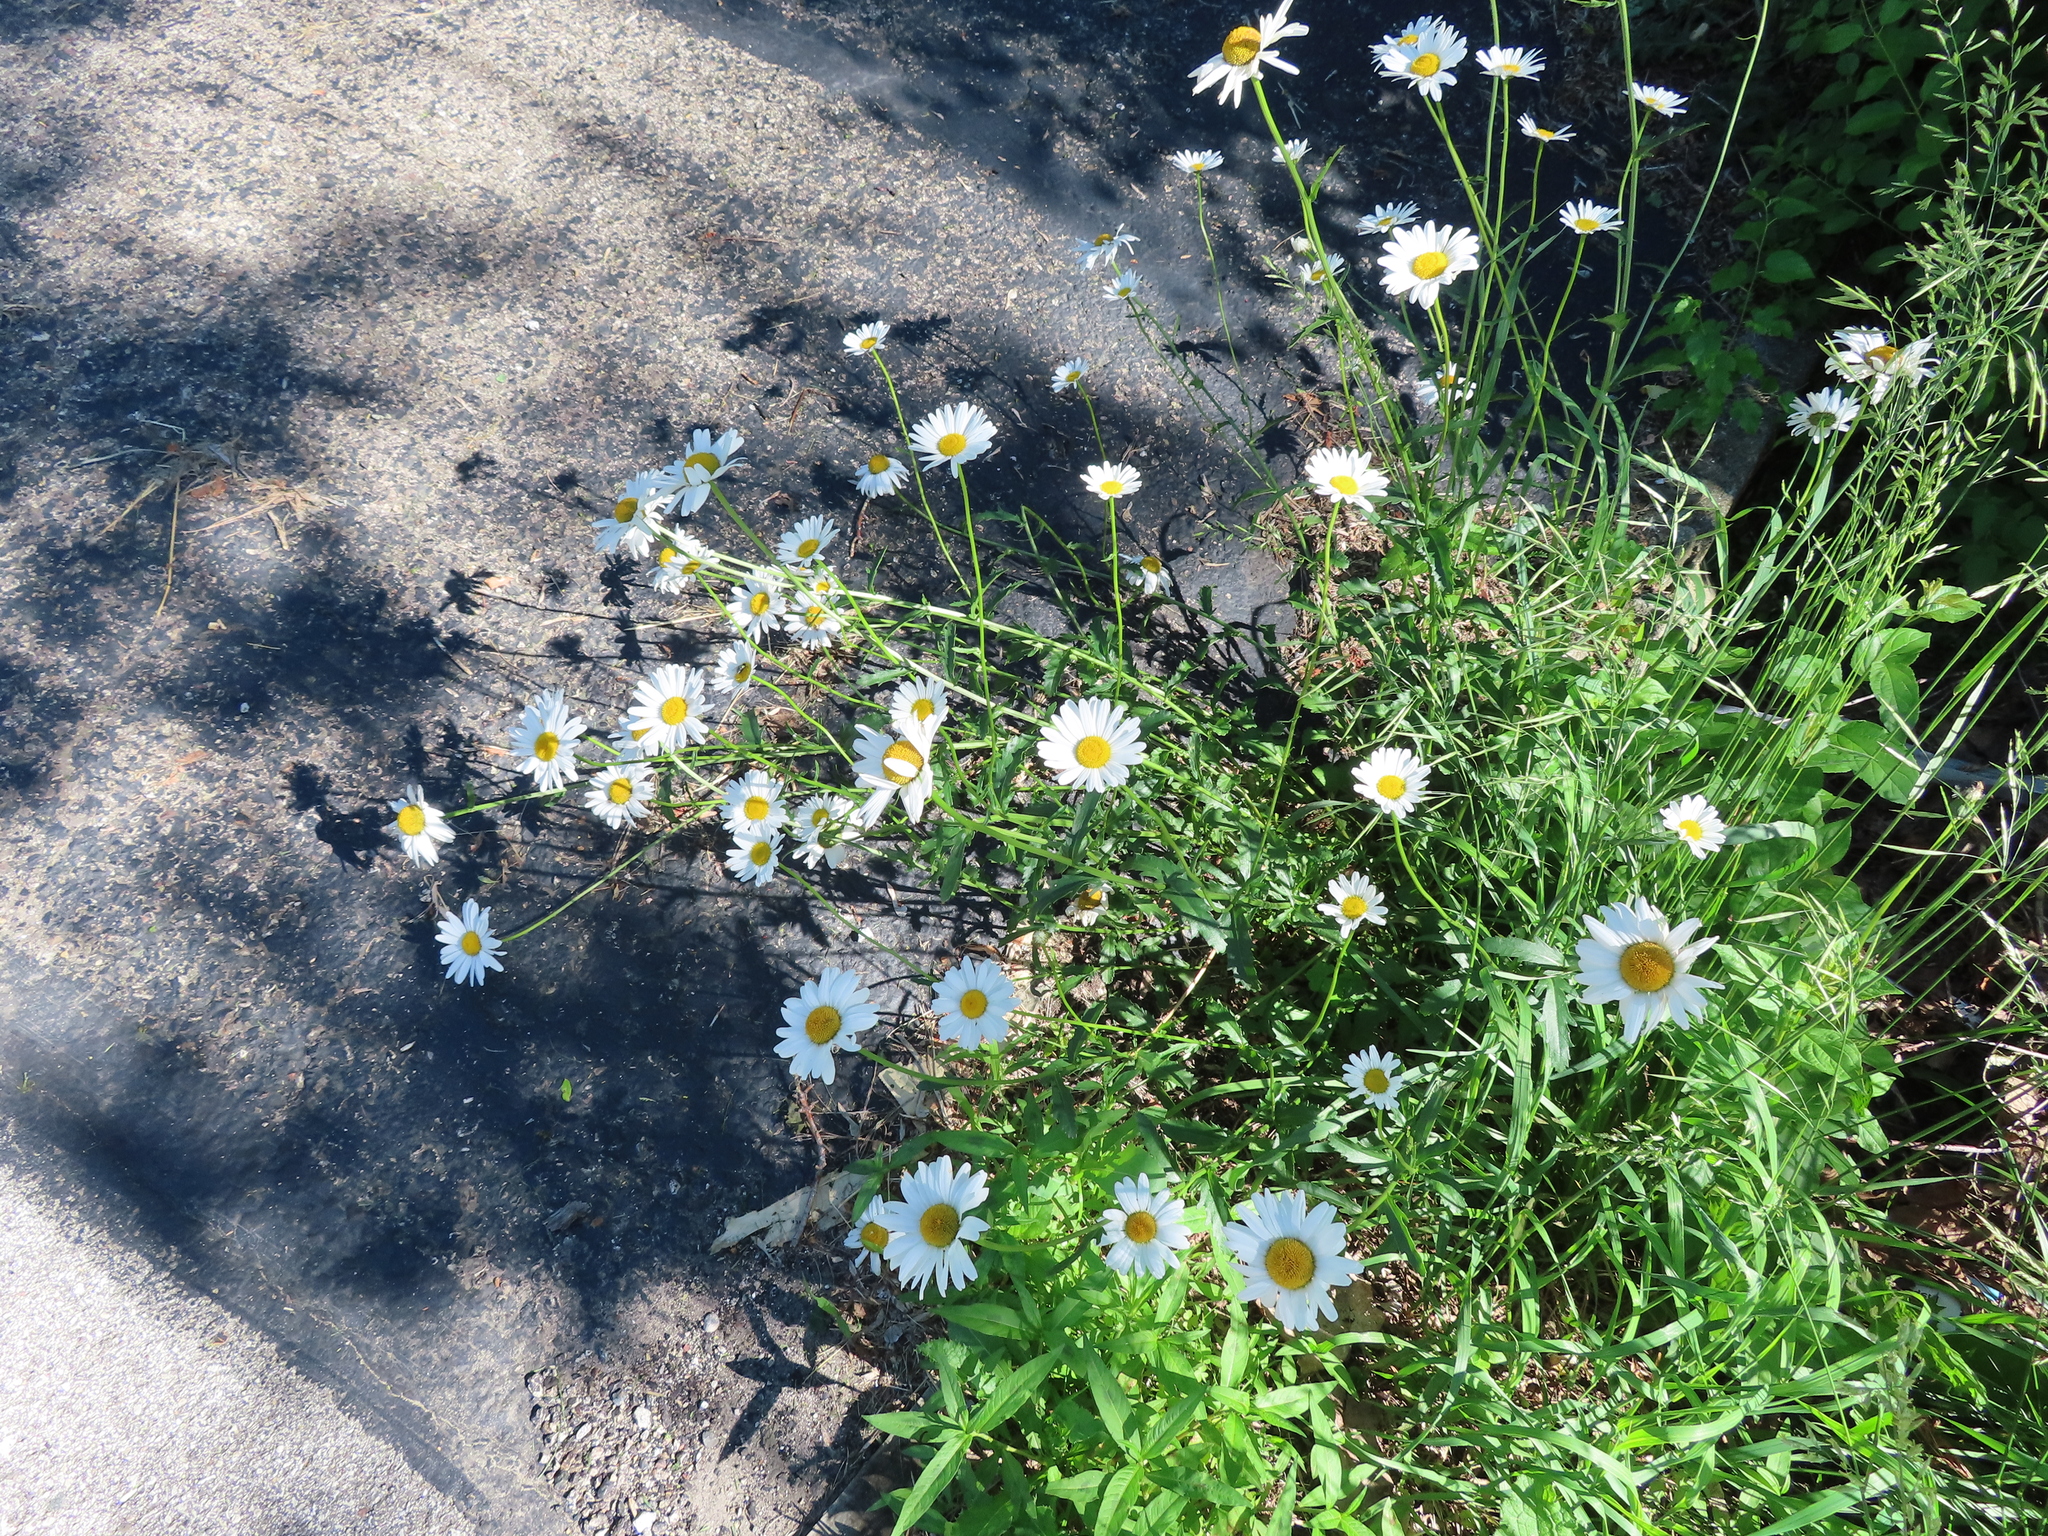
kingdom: Plantae
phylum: Tracheophyta
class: Magnoliopsida
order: Asterales
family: Asteraceae
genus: Leucanthemum
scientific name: Leucanthemum vulgare
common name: Oxeye daisy
